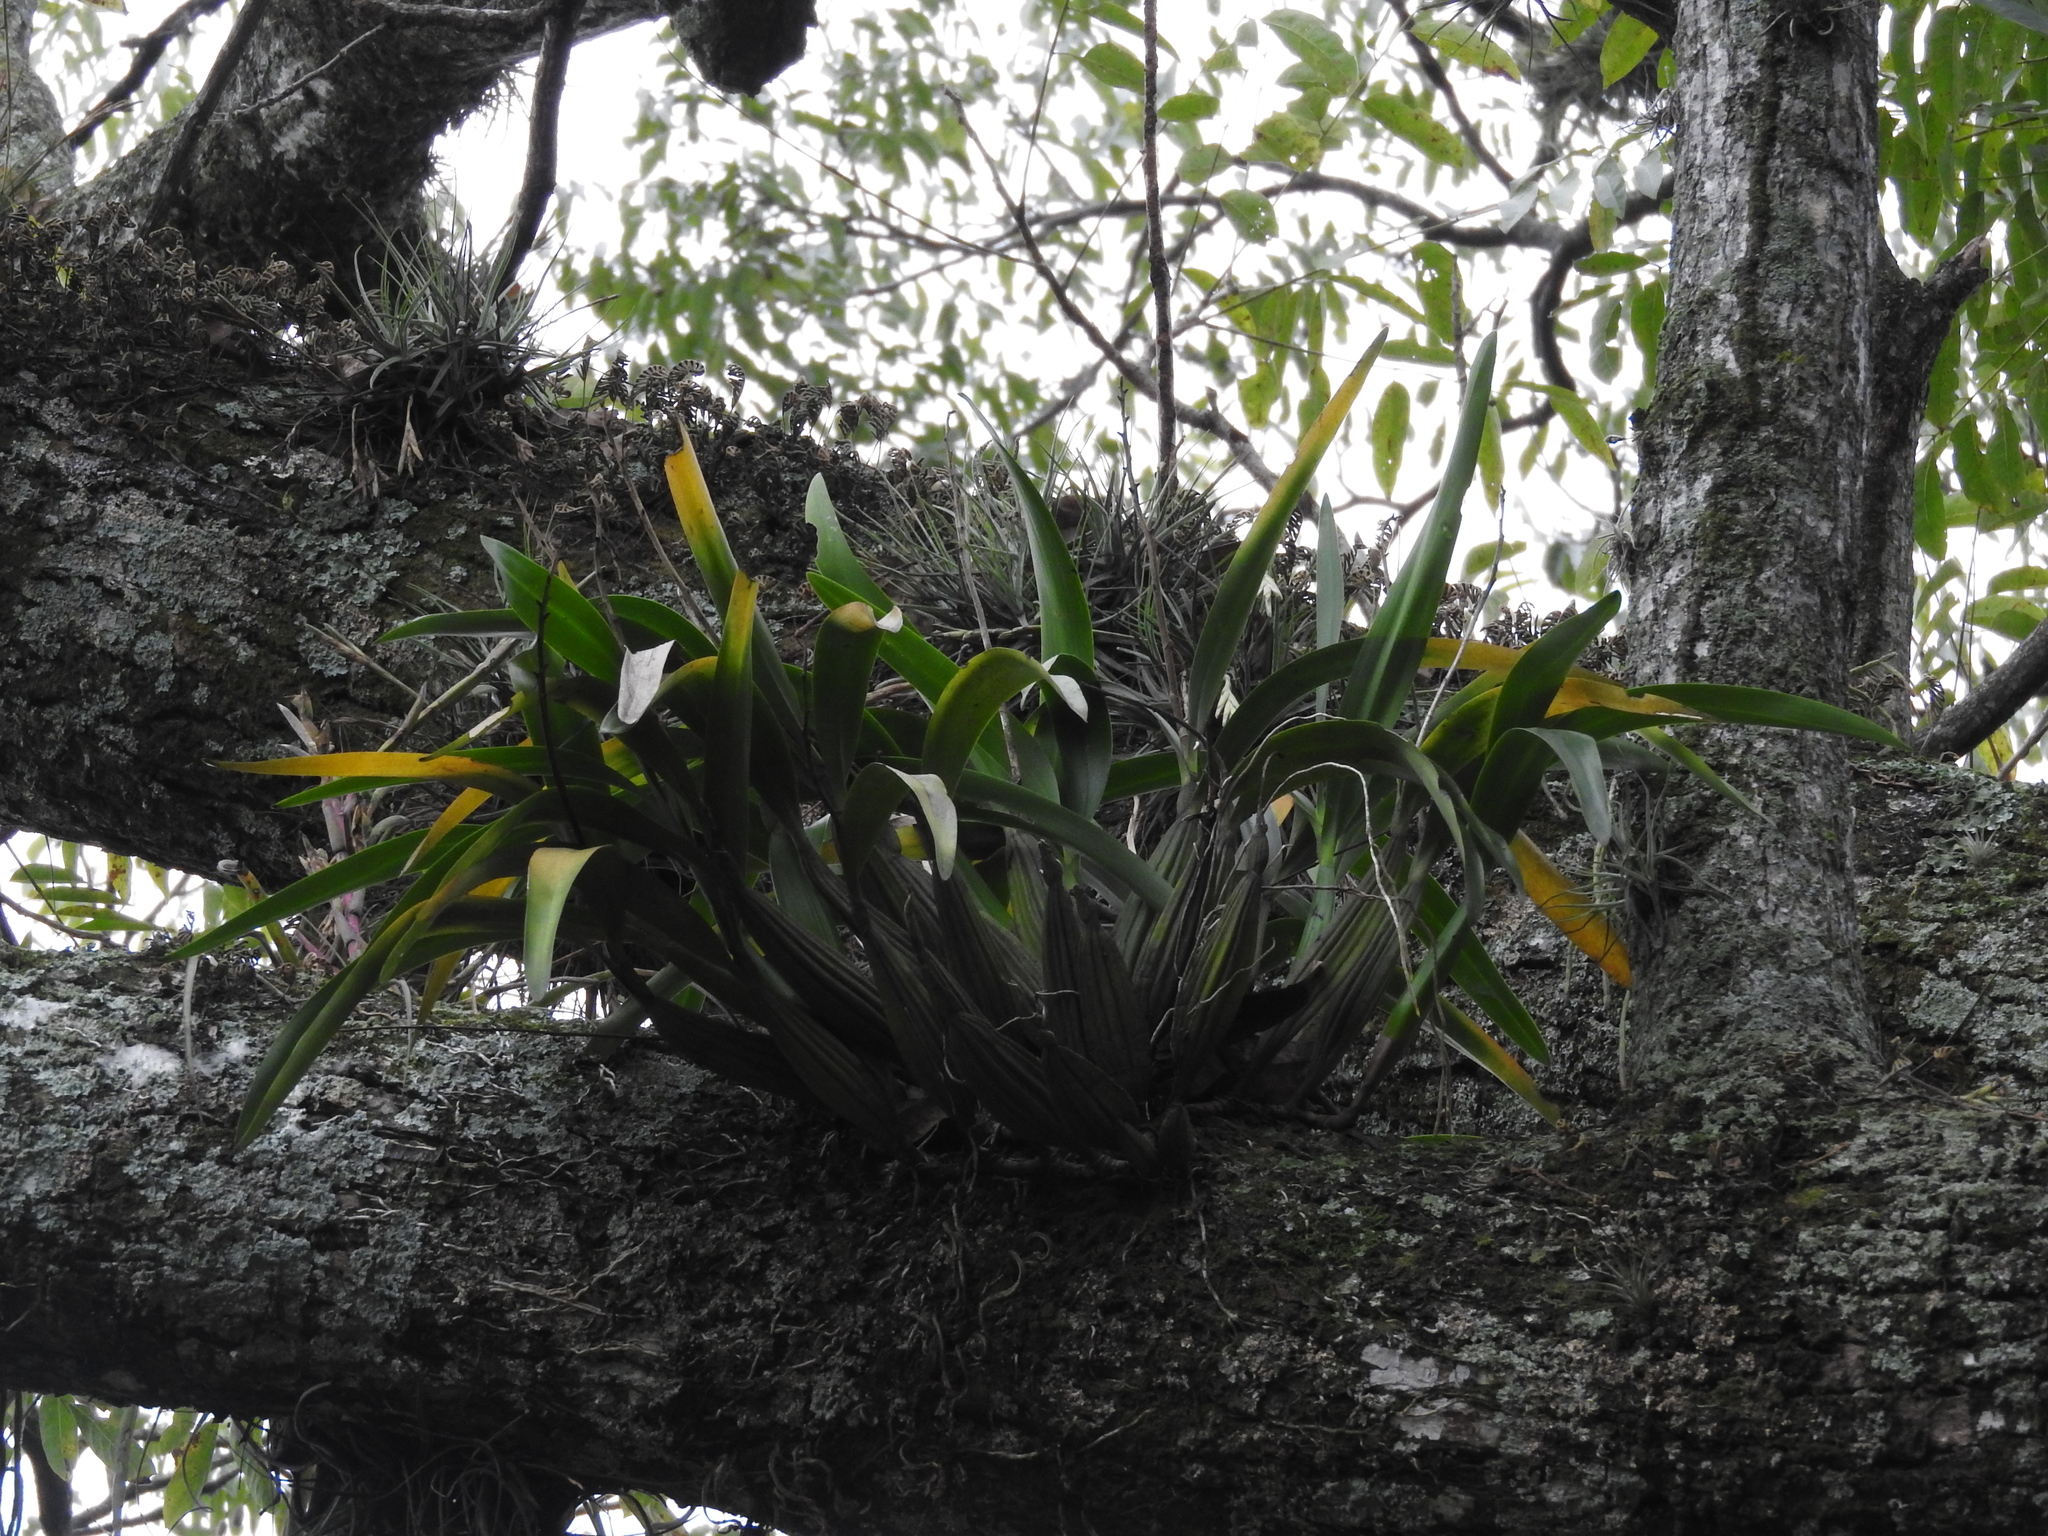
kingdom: Plantae
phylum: Tracheophyta
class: Liliopsida
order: Asparagales
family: Orchidaceae
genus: Prosthechea
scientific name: Prosthechea radiata
